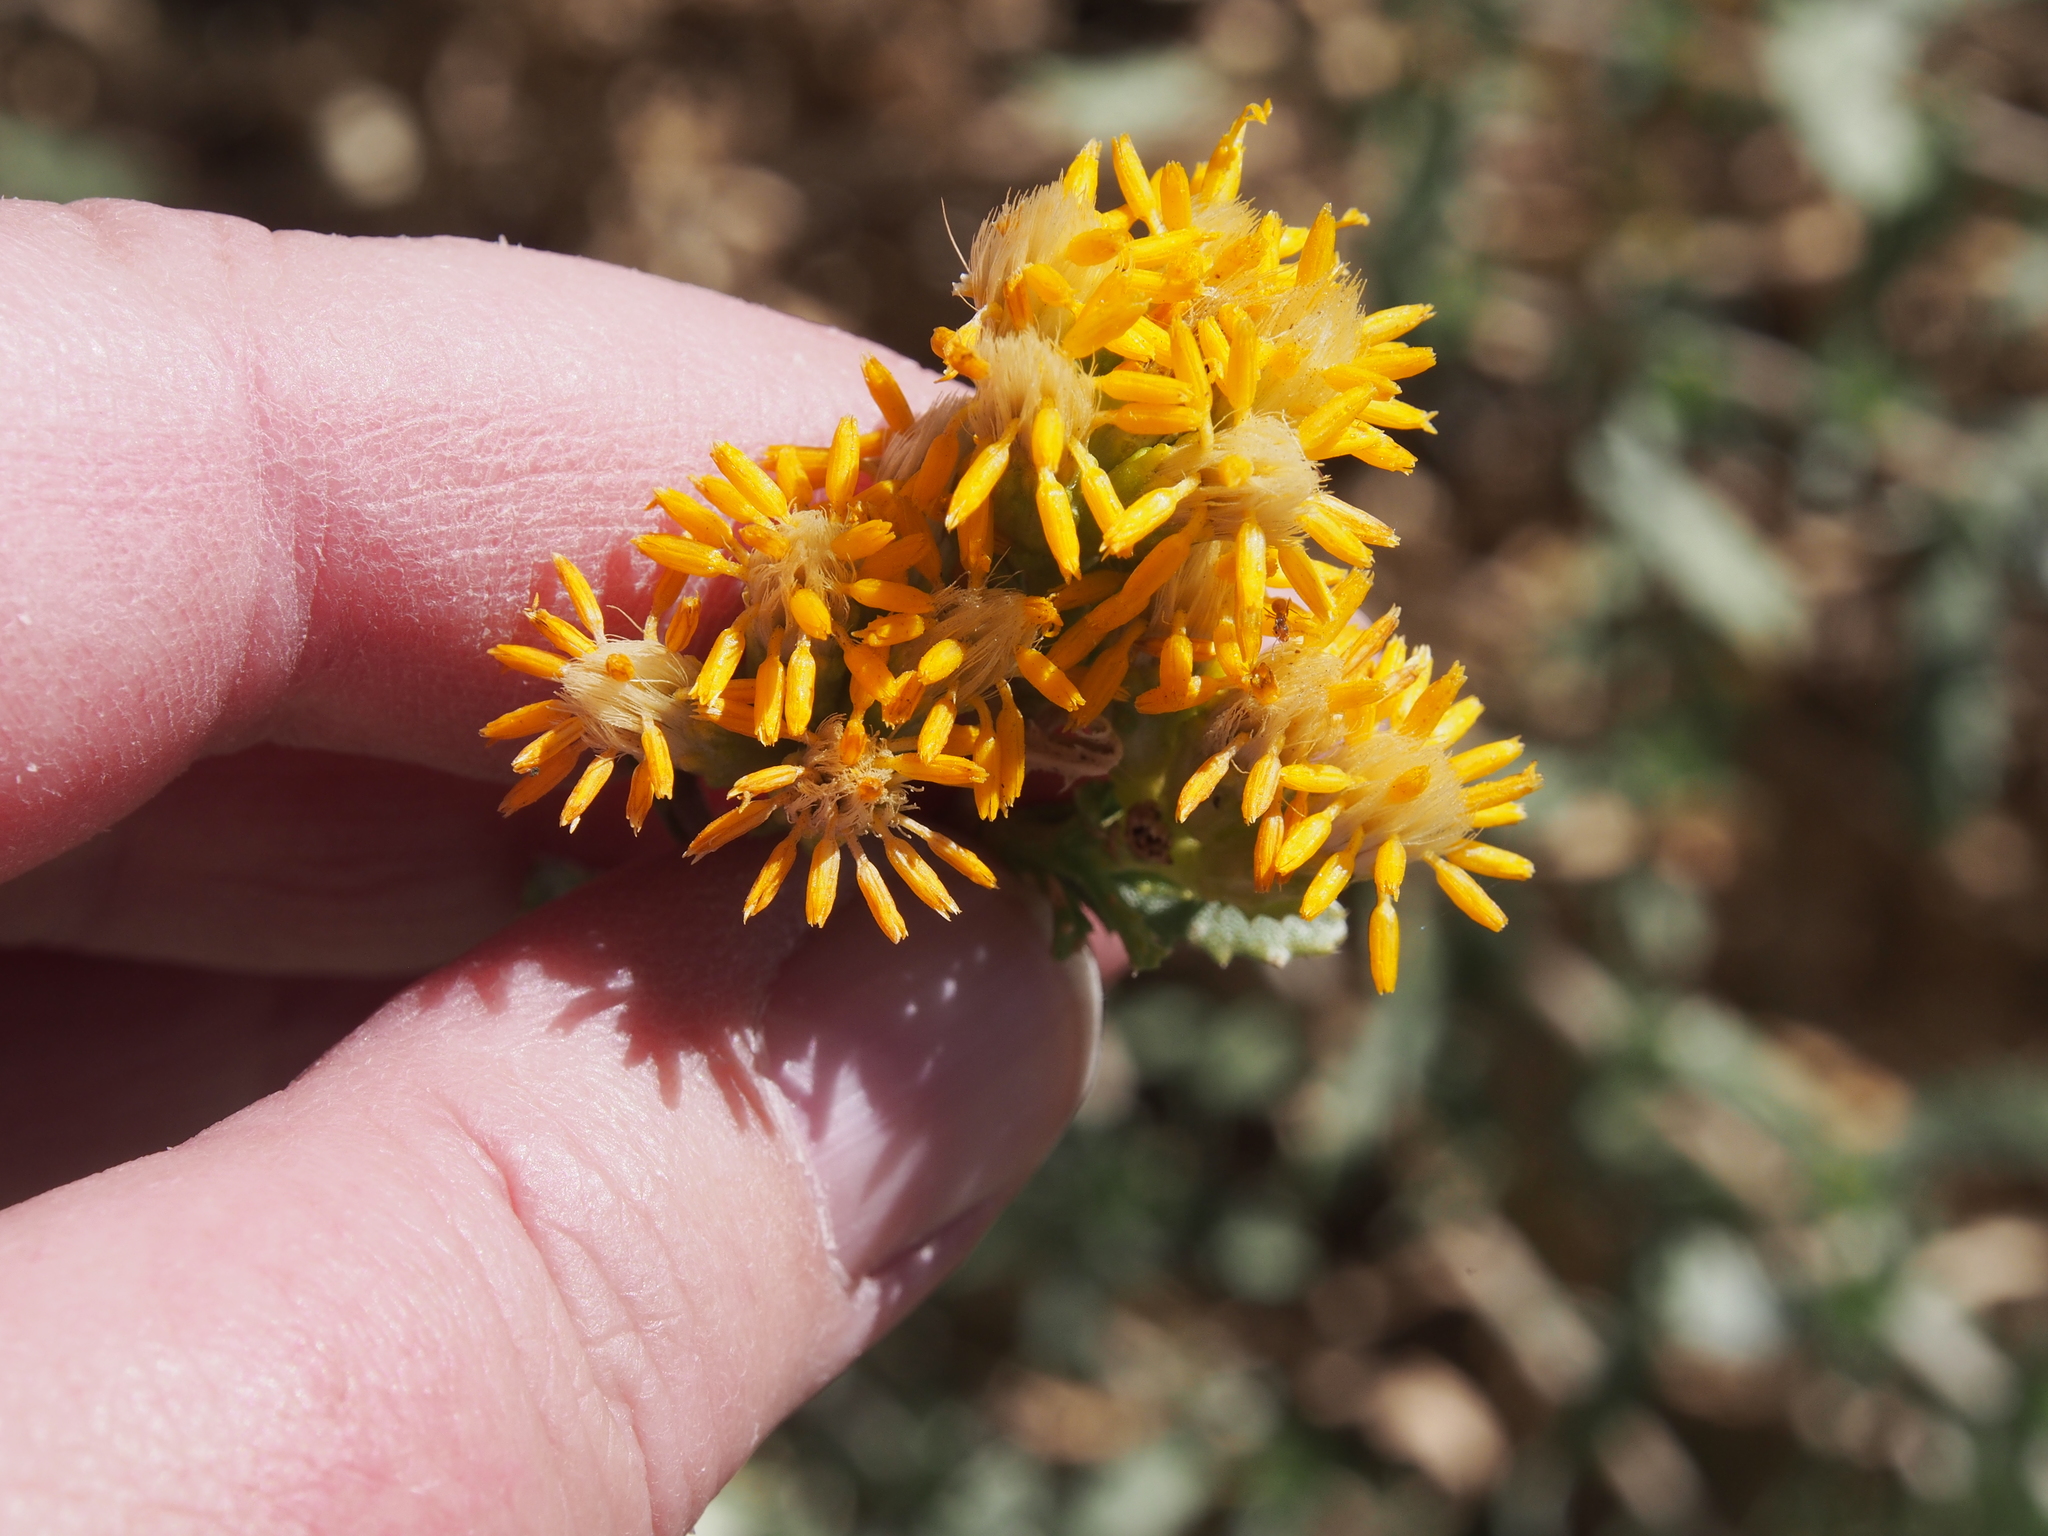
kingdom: Plantae
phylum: Tracheophyta
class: Magnoliopsida
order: Asterales
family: Asteraceae
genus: Isocoma
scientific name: Isocoma acradenia
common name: Alkali jimmyweed
